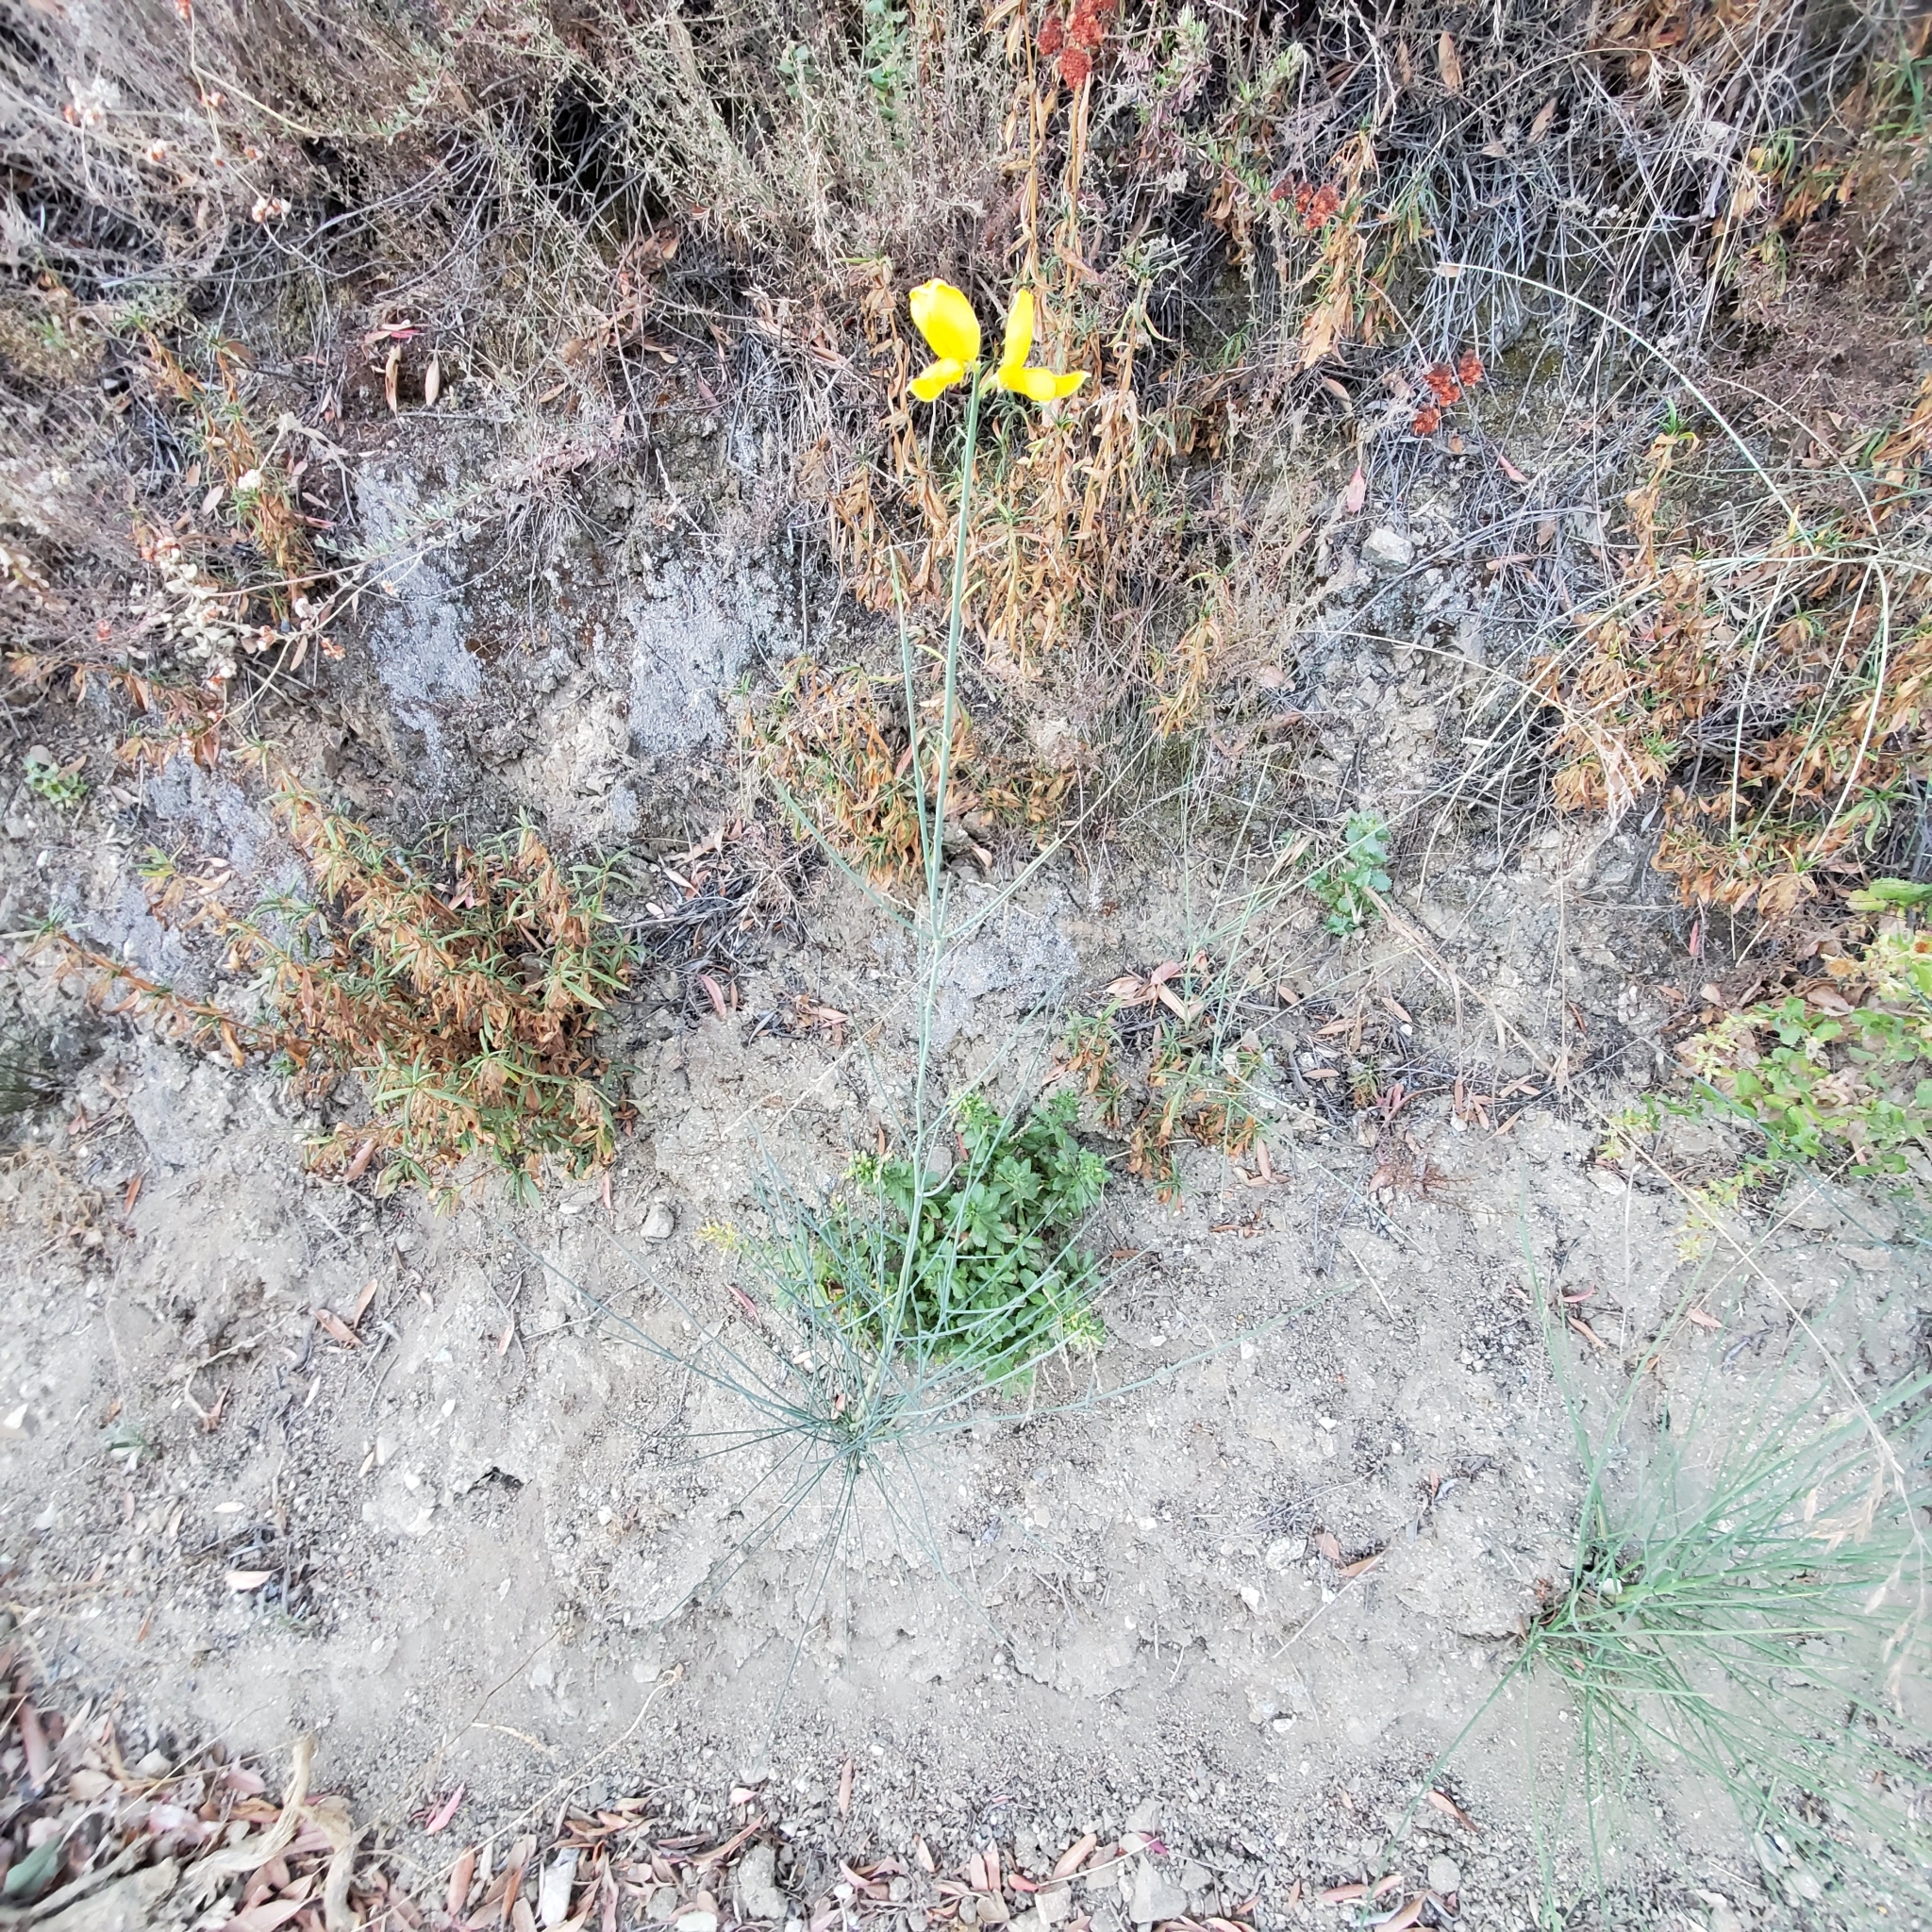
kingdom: Plantae
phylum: Tracheophyta
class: Magnoliopsida
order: Fabales
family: Fabaceae
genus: Spartium
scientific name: Spartium junceum
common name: Spanish broom
